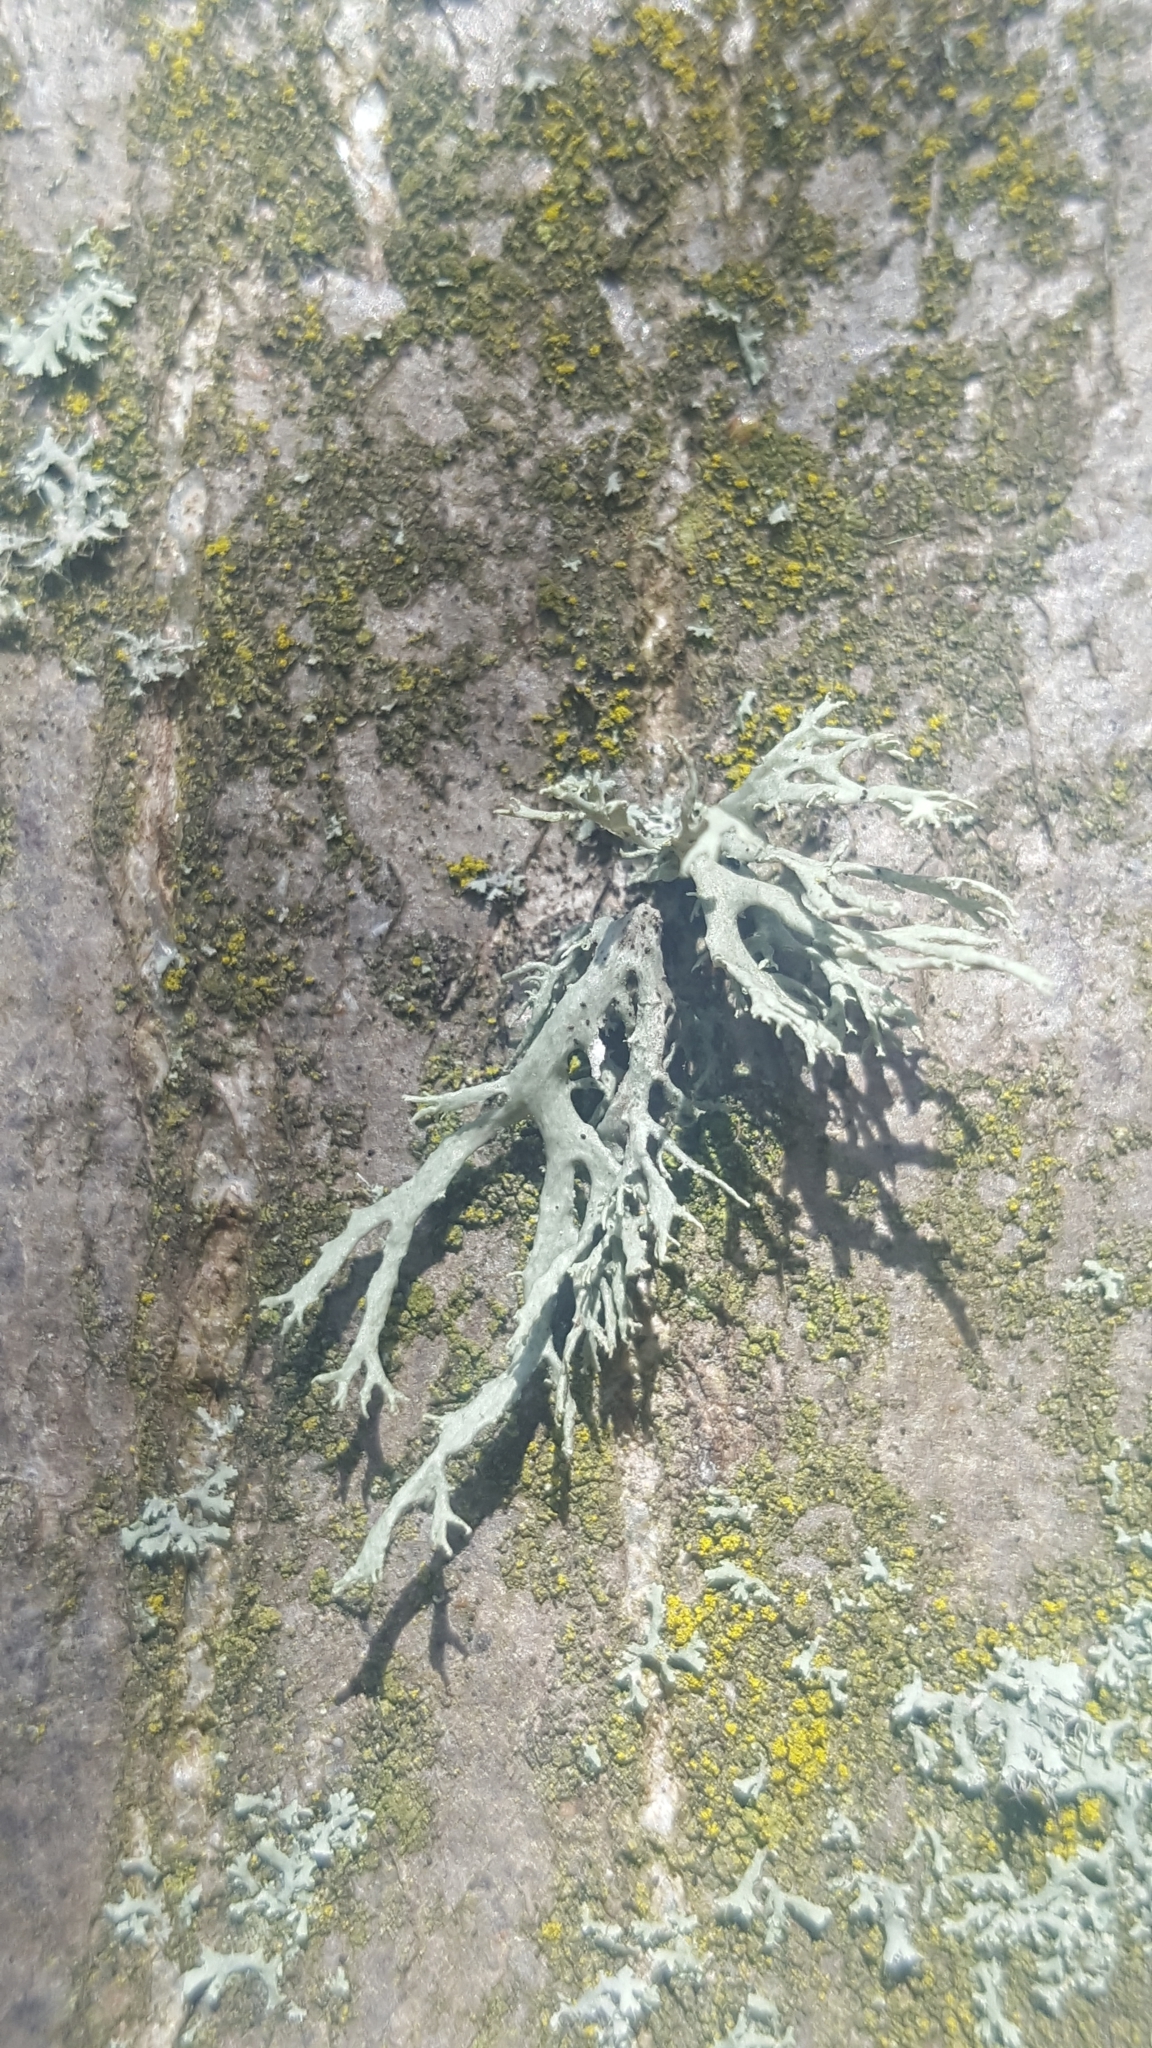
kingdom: Fungi
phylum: Ascomycota
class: Lecanoromycetes
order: Lecanorales
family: Parmeliaceae
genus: Evernia
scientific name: Evernia prunastri
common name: Oak moss
